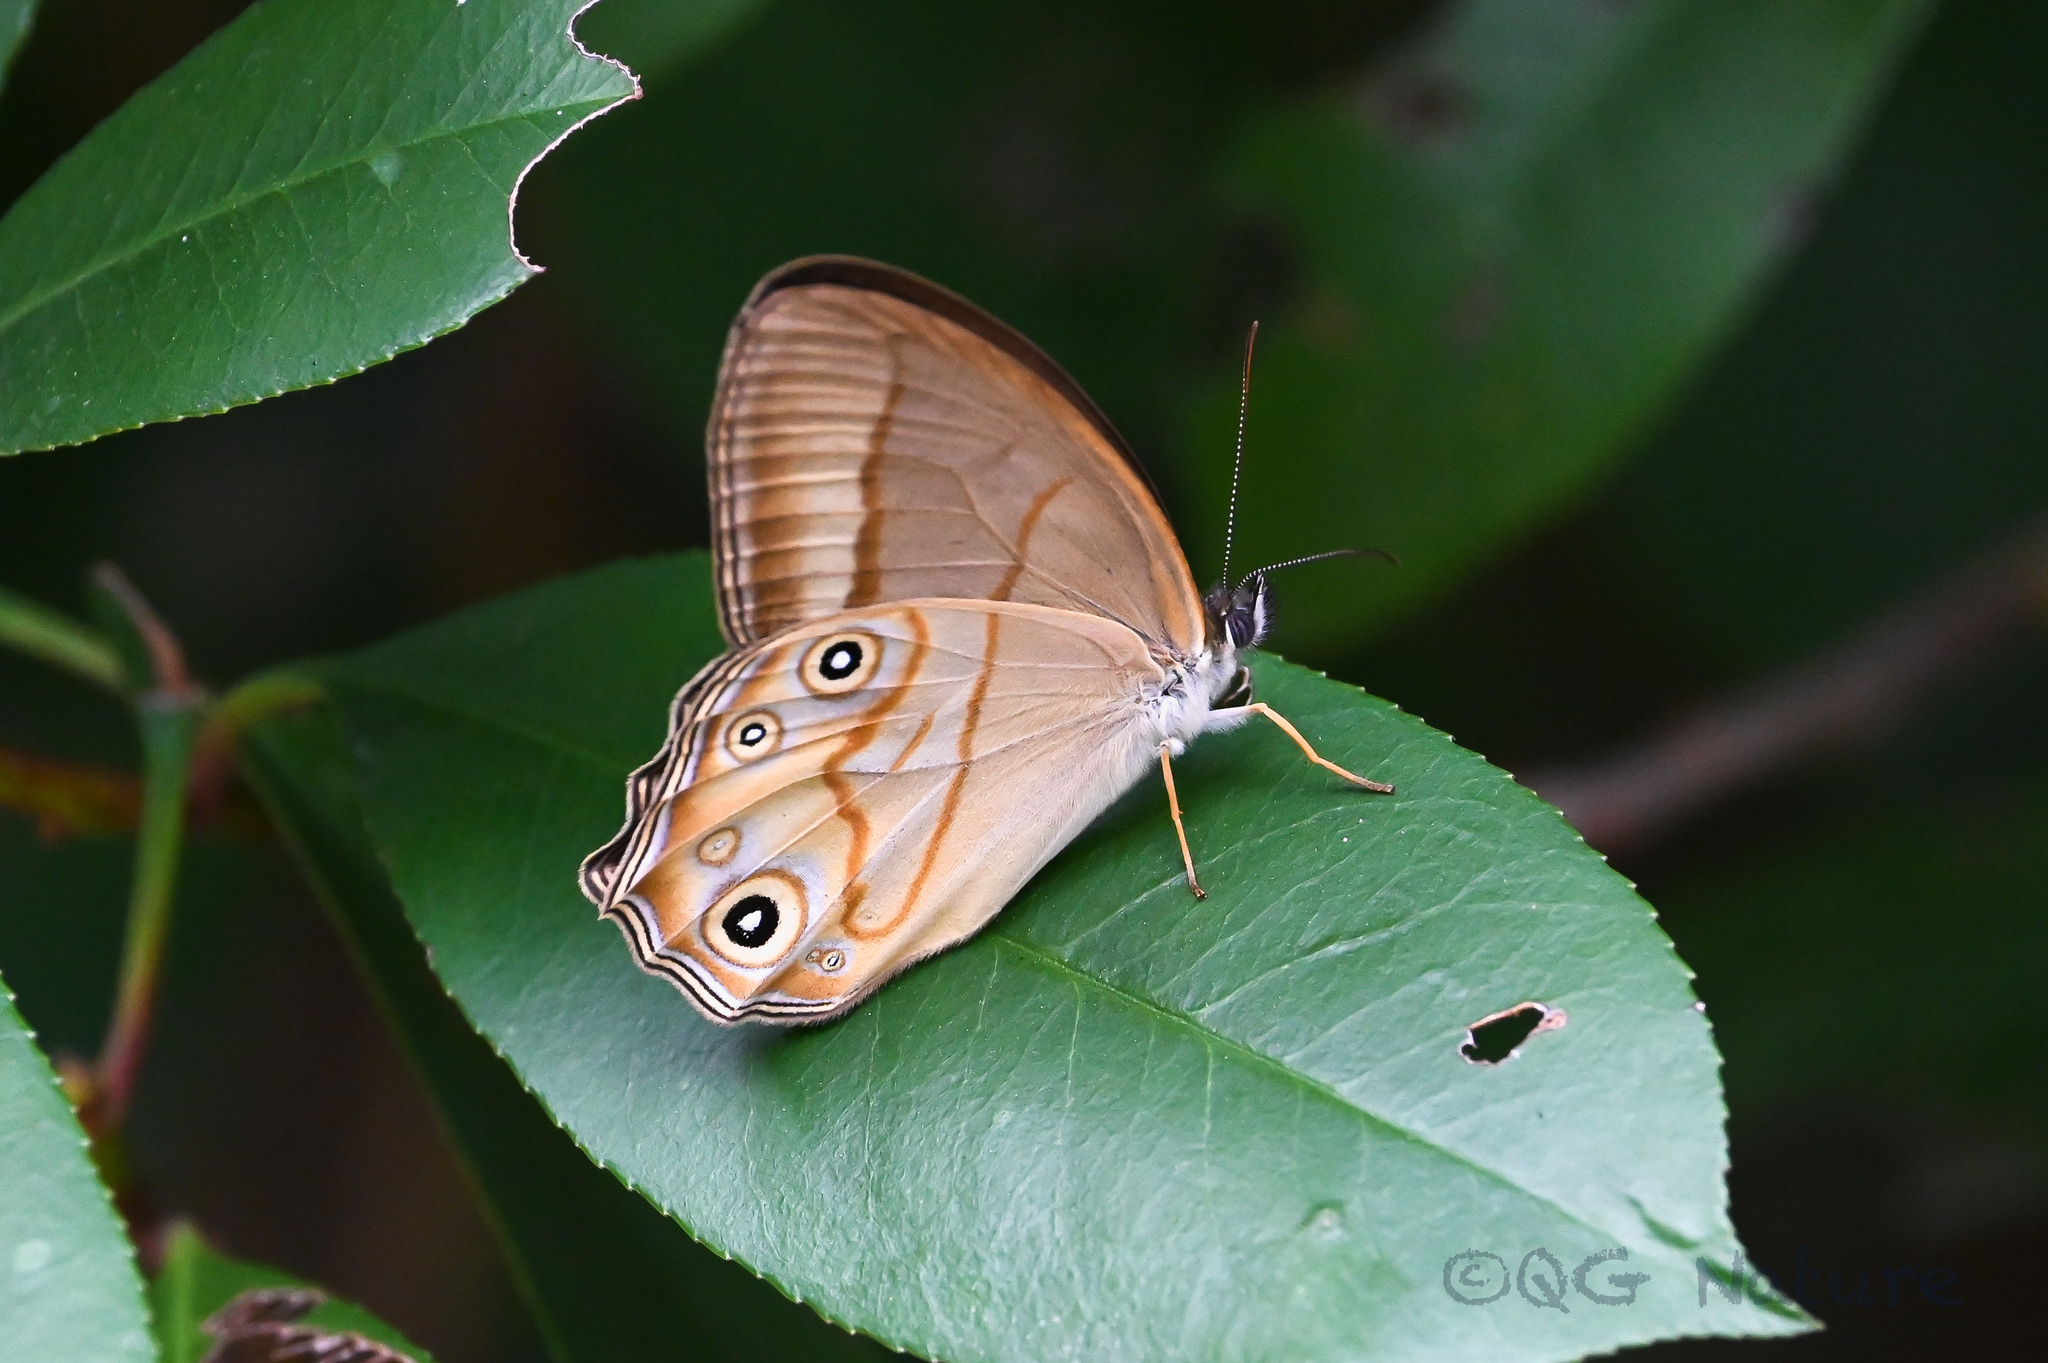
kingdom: Animalia
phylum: Arthropoda
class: Insecta
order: Lepidoptera
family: Nymphalidae
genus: Lethe
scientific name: Lethe syrcis
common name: Yellow forester
